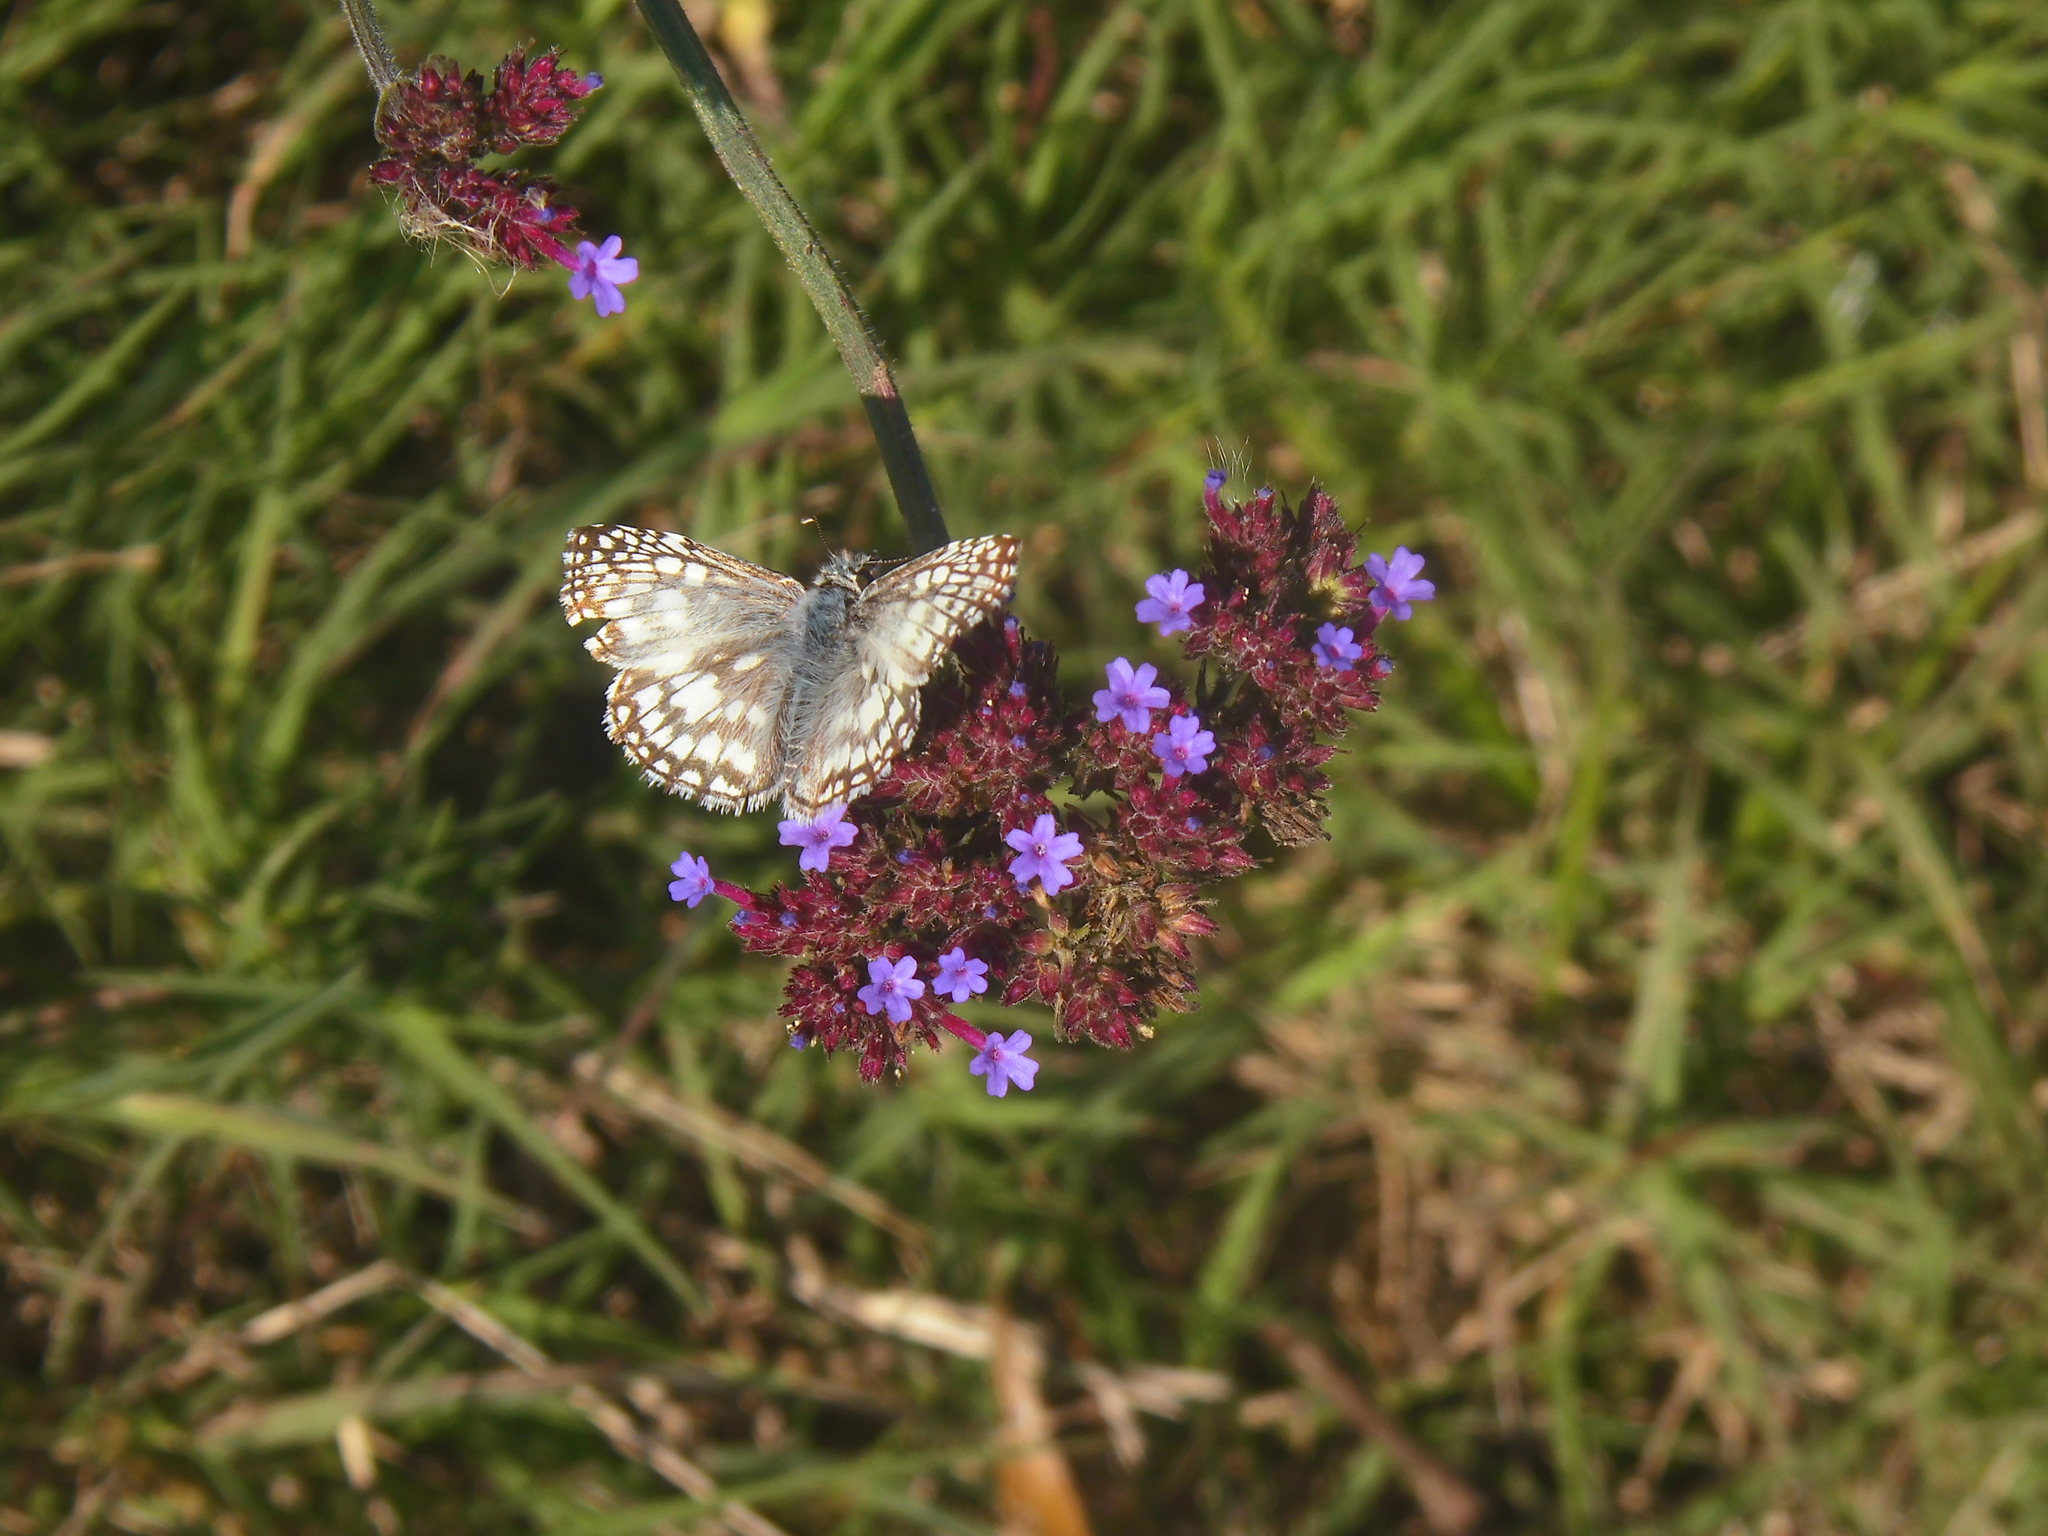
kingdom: Animalia
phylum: Arthropoda
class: Insecta
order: Lepidoptera
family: Hesperiidae
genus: Pyrgus
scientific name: Pyrgus oileus
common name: Tropical checkered-skipper
